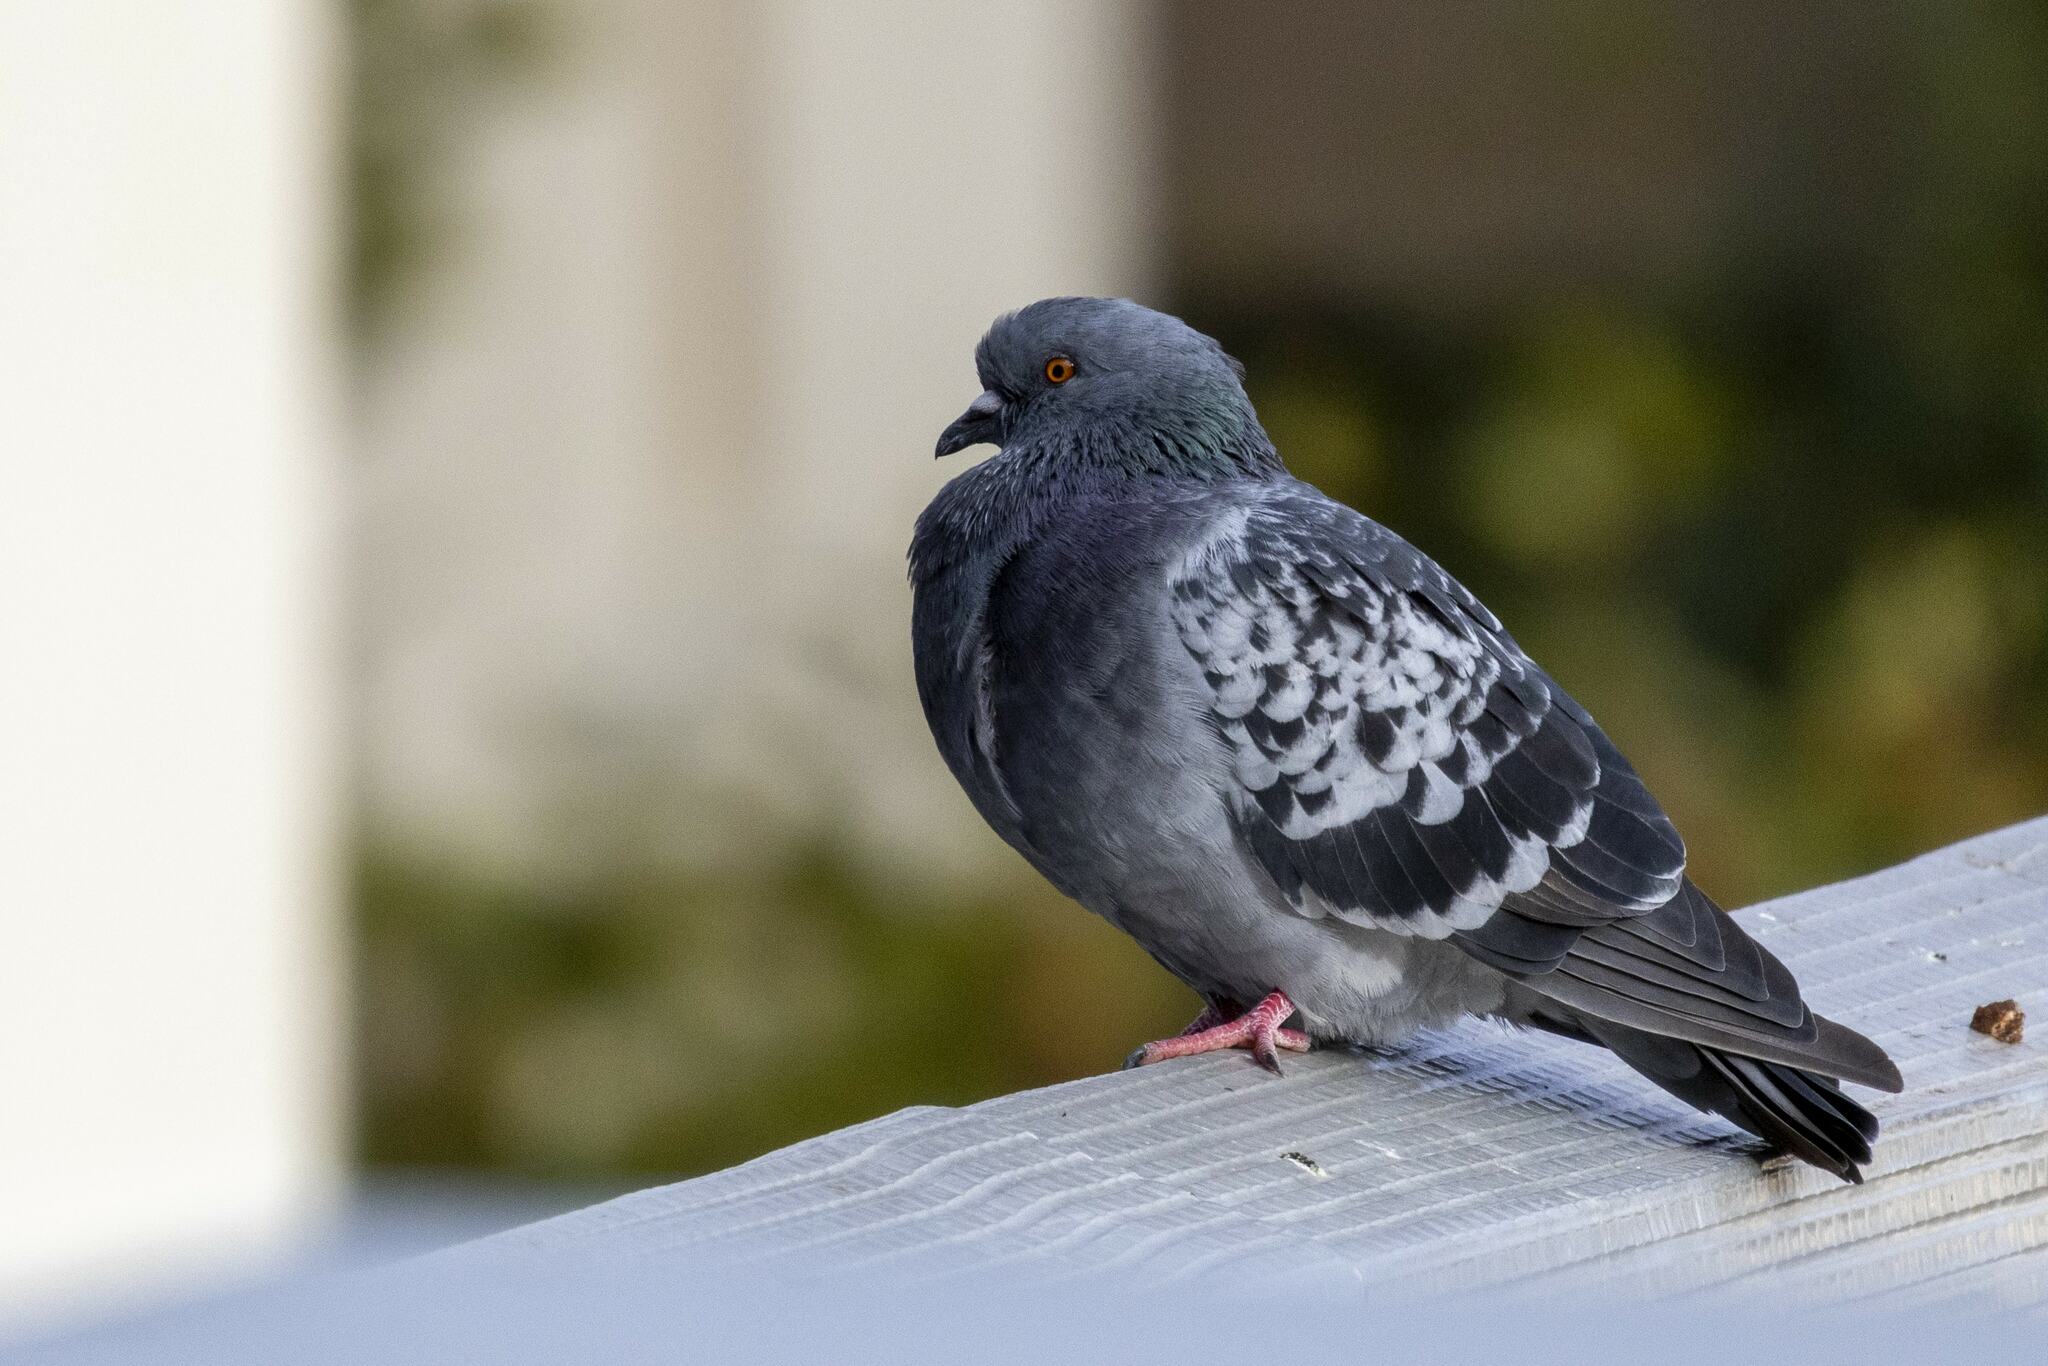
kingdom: Animalia
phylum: Chordata
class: Aves
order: Columbiformes
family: Columbidae
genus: Columba
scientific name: Columba livia
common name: Rock pigeon
